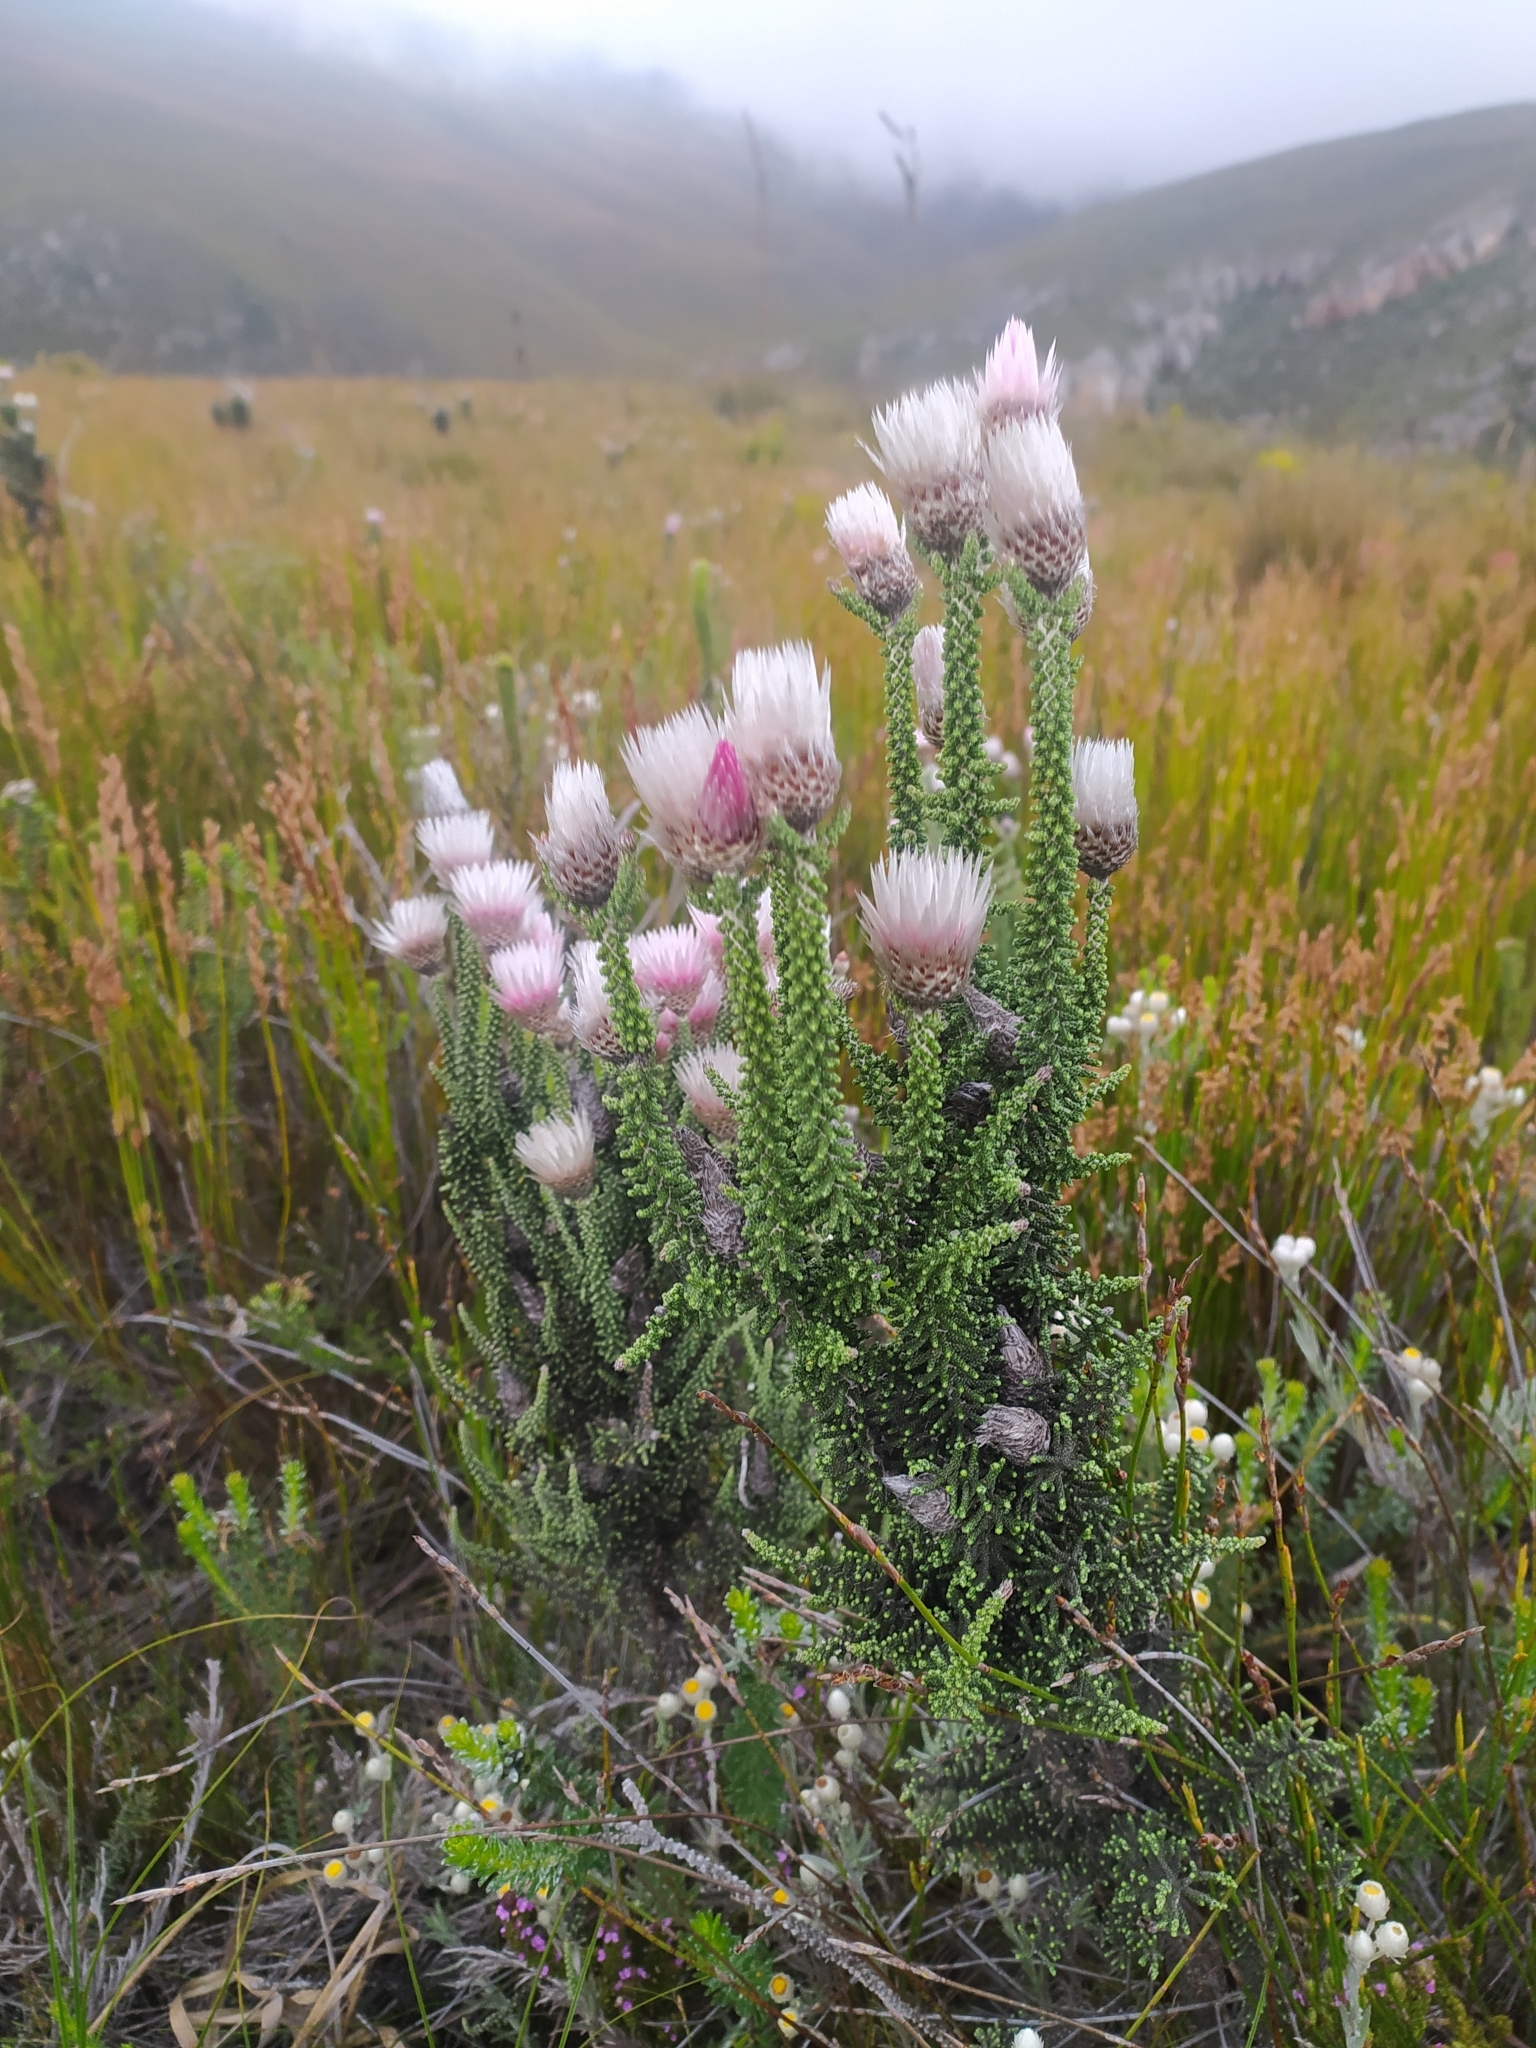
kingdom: Plantae
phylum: Tracheophyta
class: Magnoliopsida
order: Asterales
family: Asteraceae
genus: Phaenocoma
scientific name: Phaenocoma prolifera
